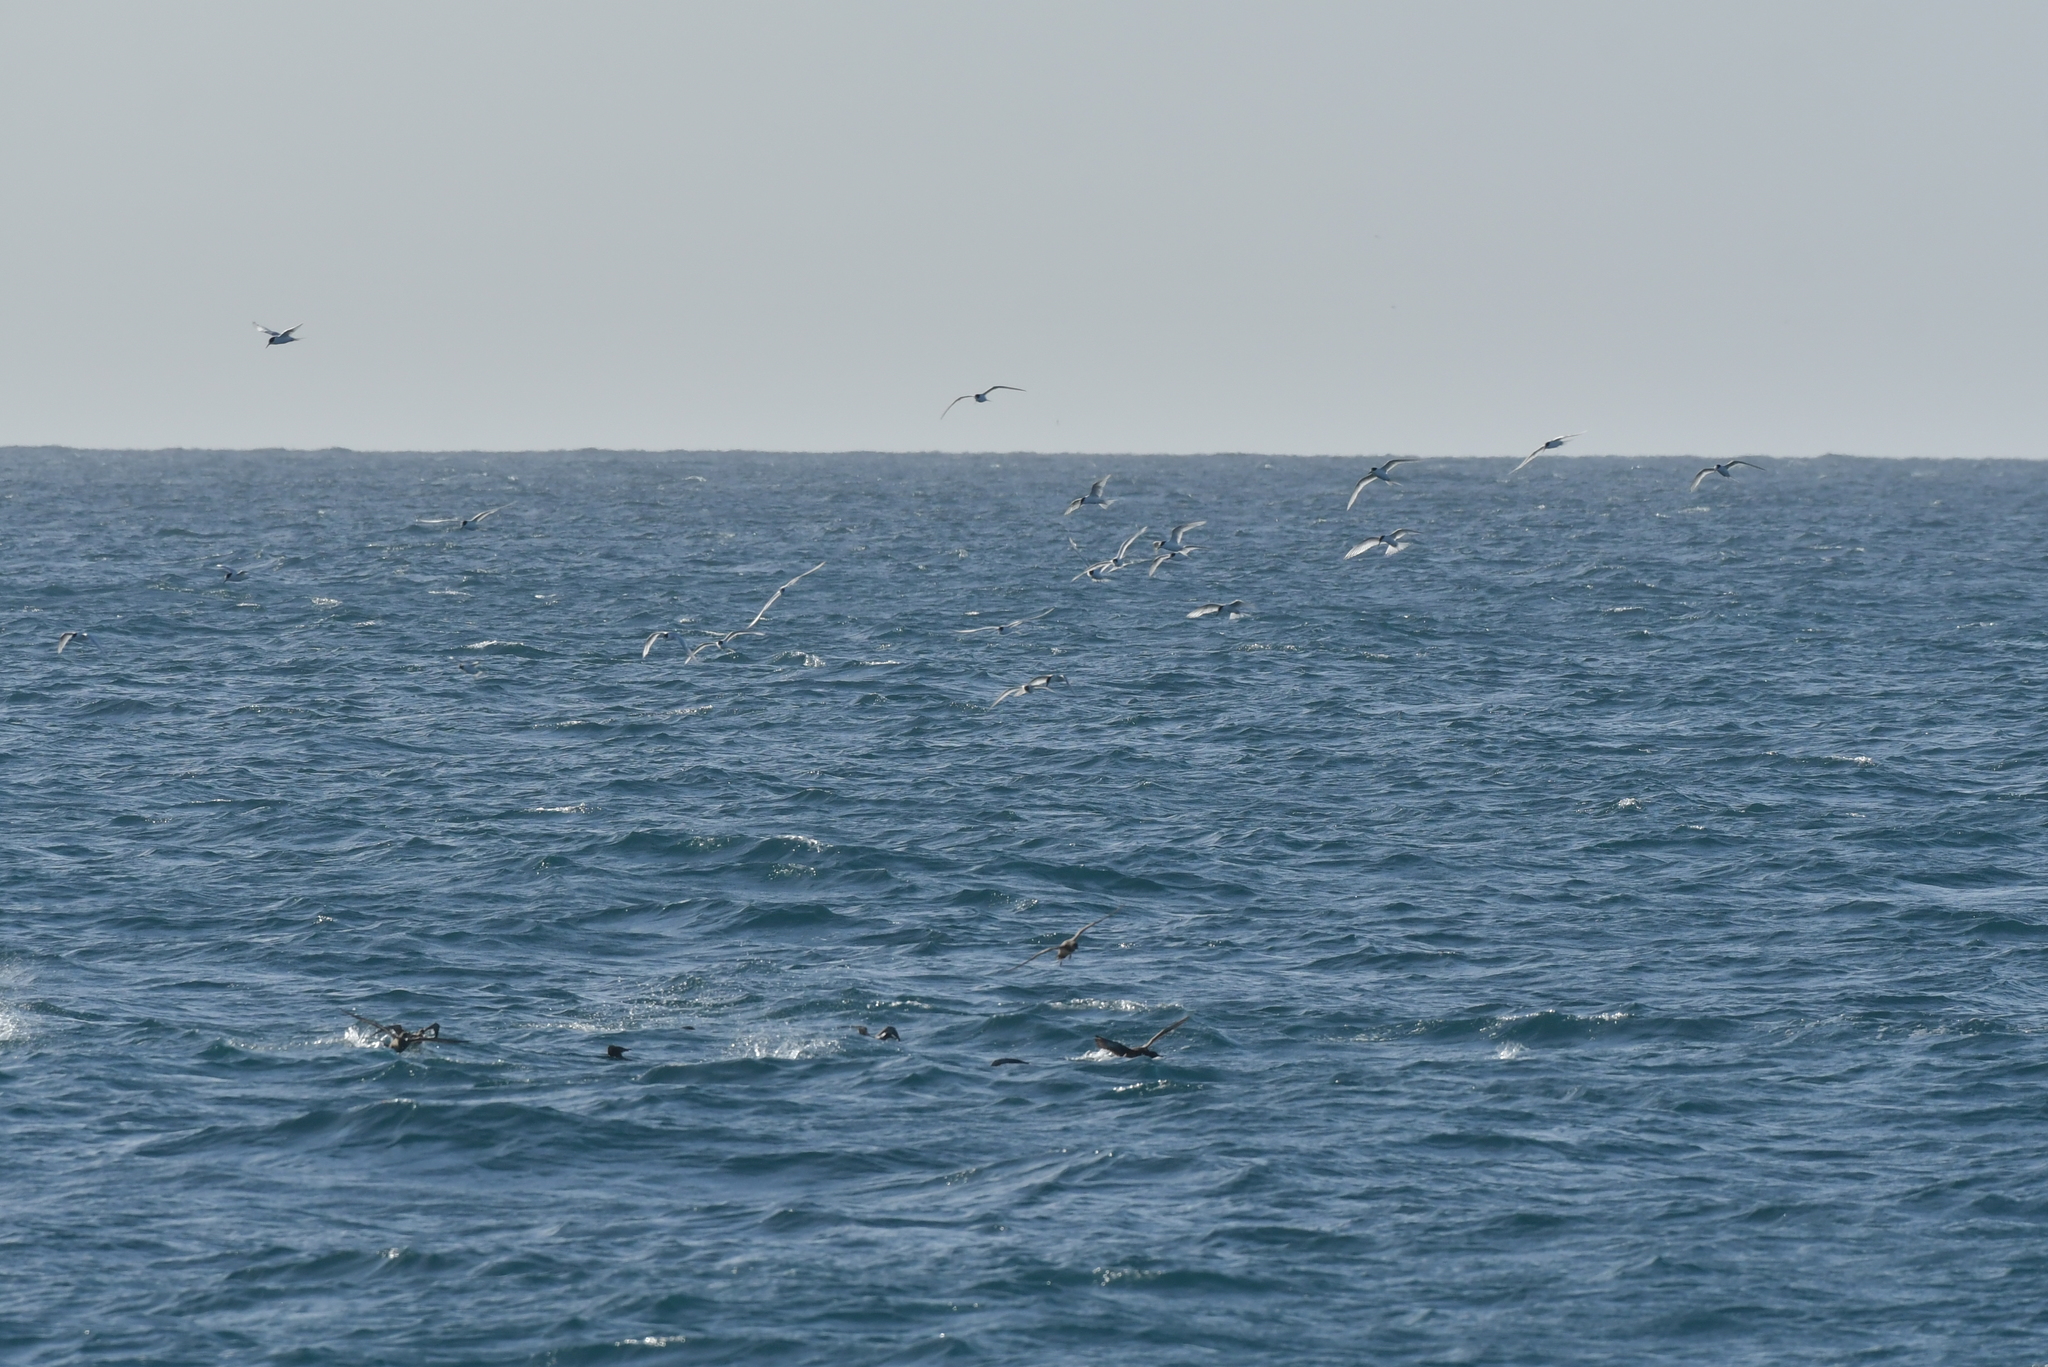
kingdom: Animalia
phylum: Chordata
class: Aves
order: Charadriiformes
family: Laridae
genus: Sterna
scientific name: Sterna striata
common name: White-fronted tern
